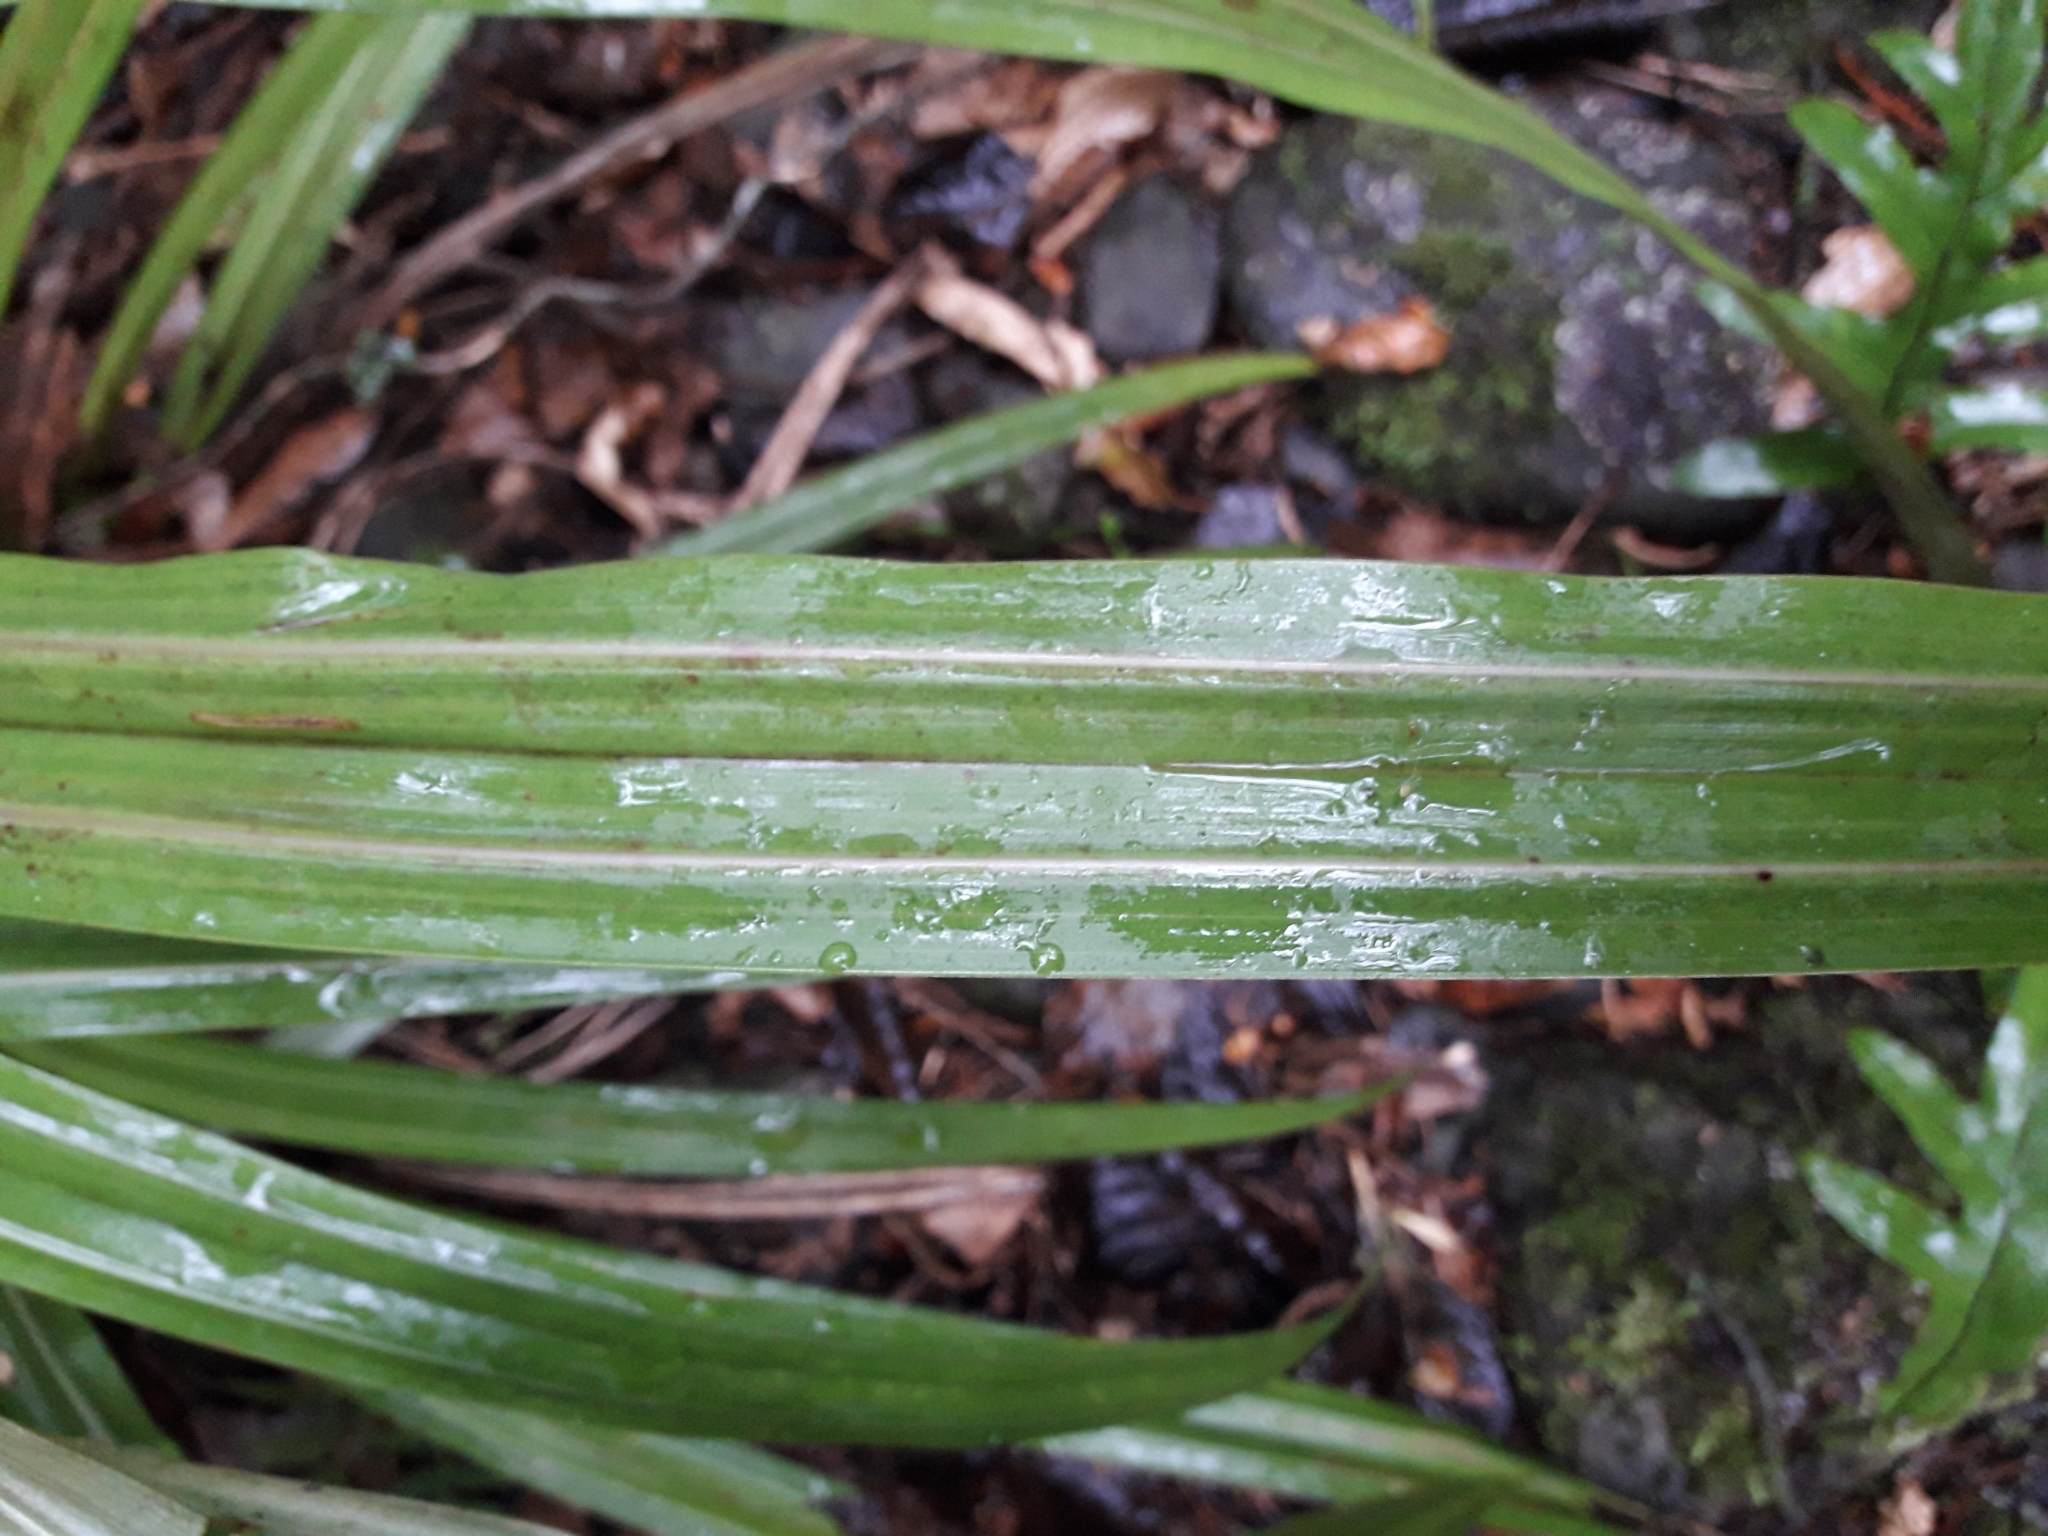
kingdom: Plantae
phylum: Tracheophyta
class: Liliopsida
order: Asparagales
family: Asteliaceae
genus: Astelia
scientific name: Astelia fragrans
